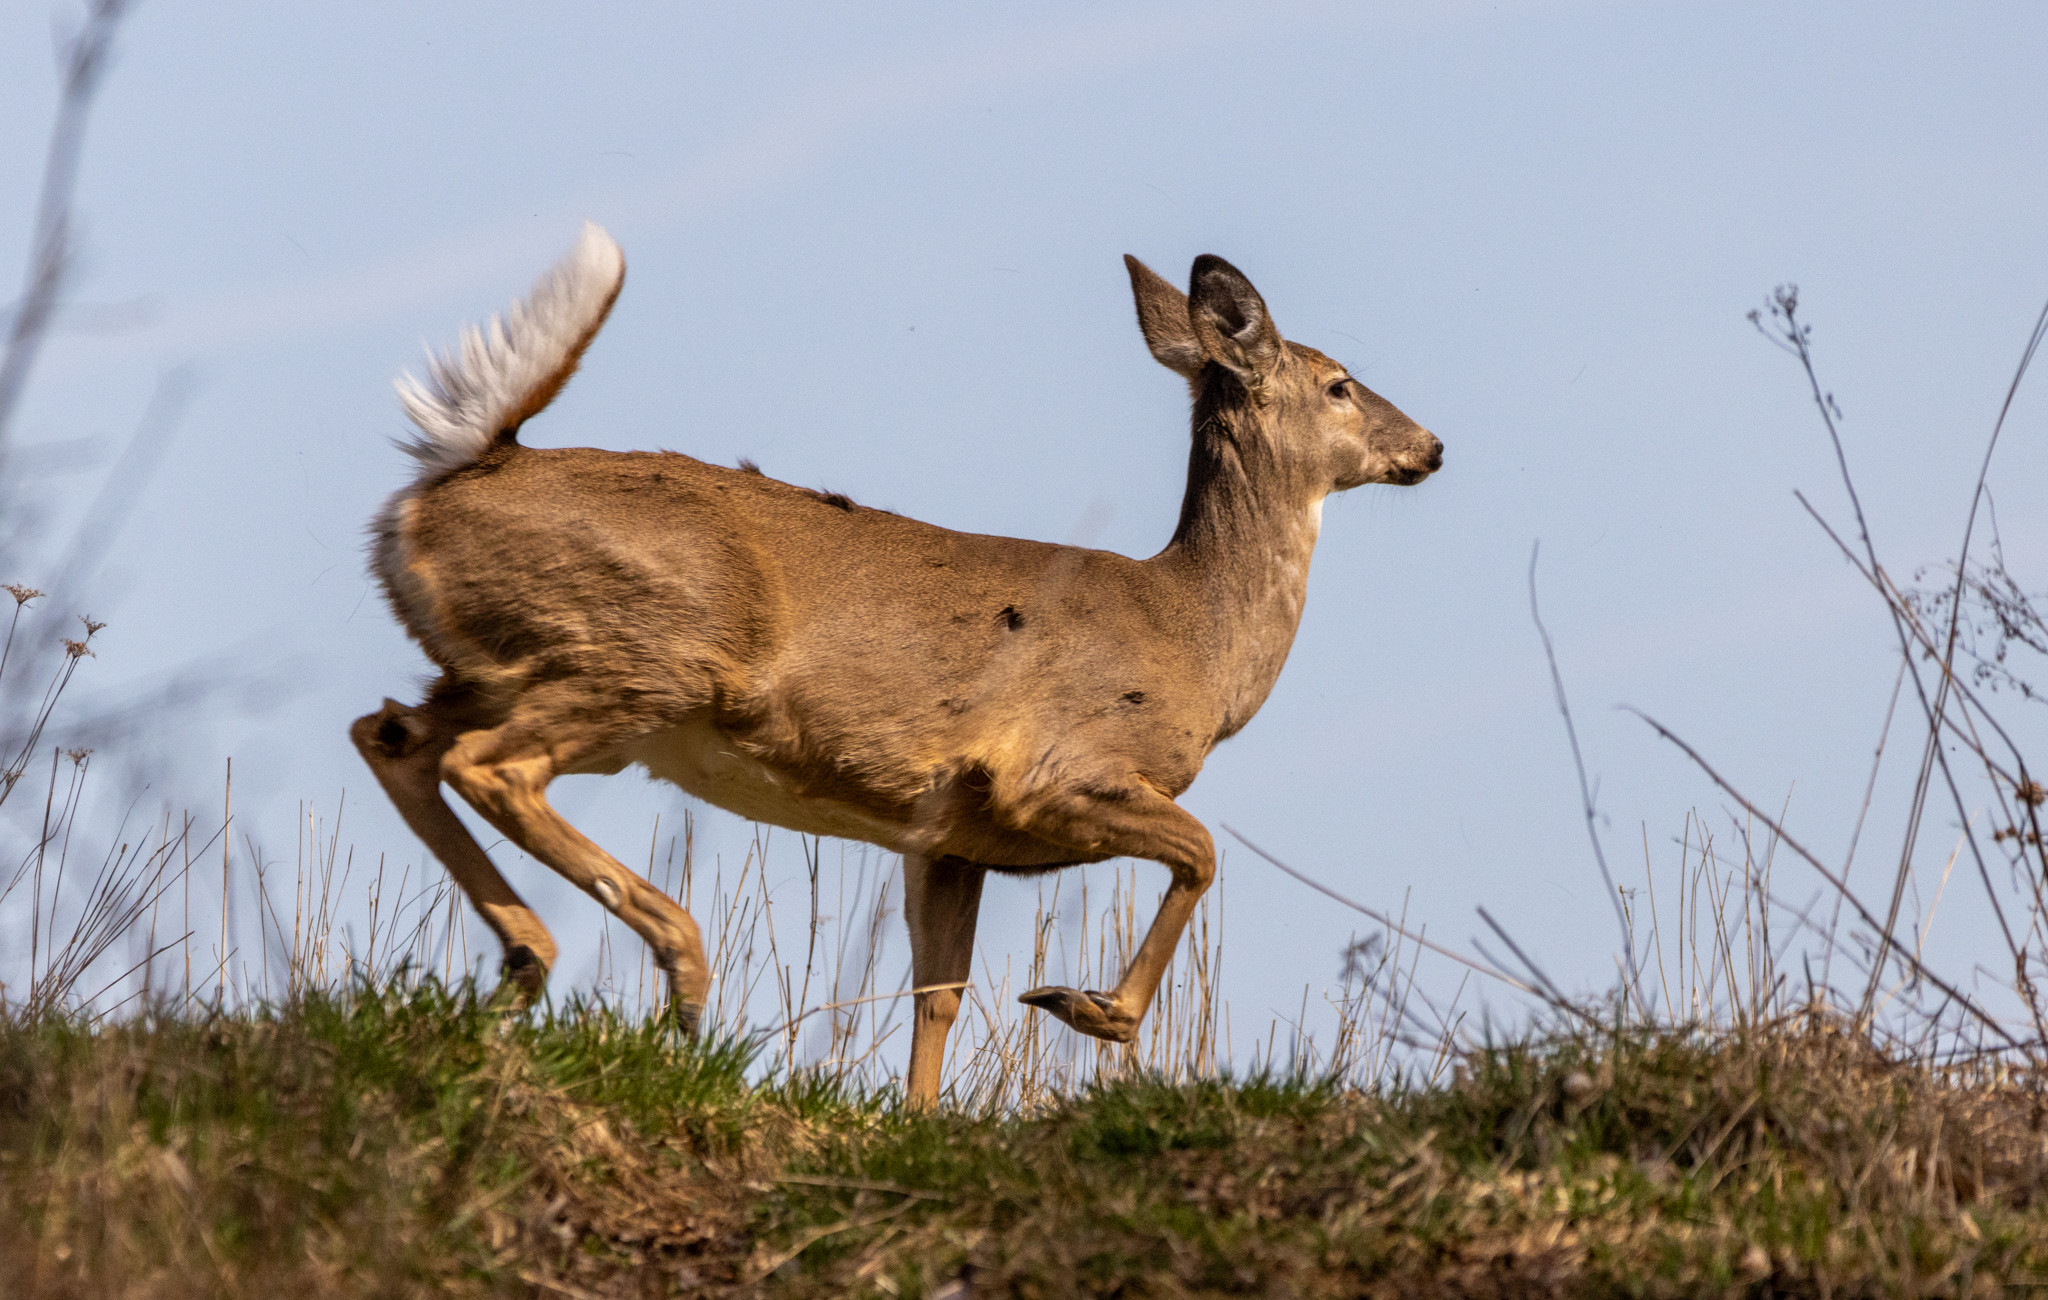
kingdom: Animalia
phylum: Chordata
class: Mammalia
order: Artiodactyla
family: Cervidae
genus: Odocoileus
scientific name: Odocoileus virginianus
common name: White-tailed deer
